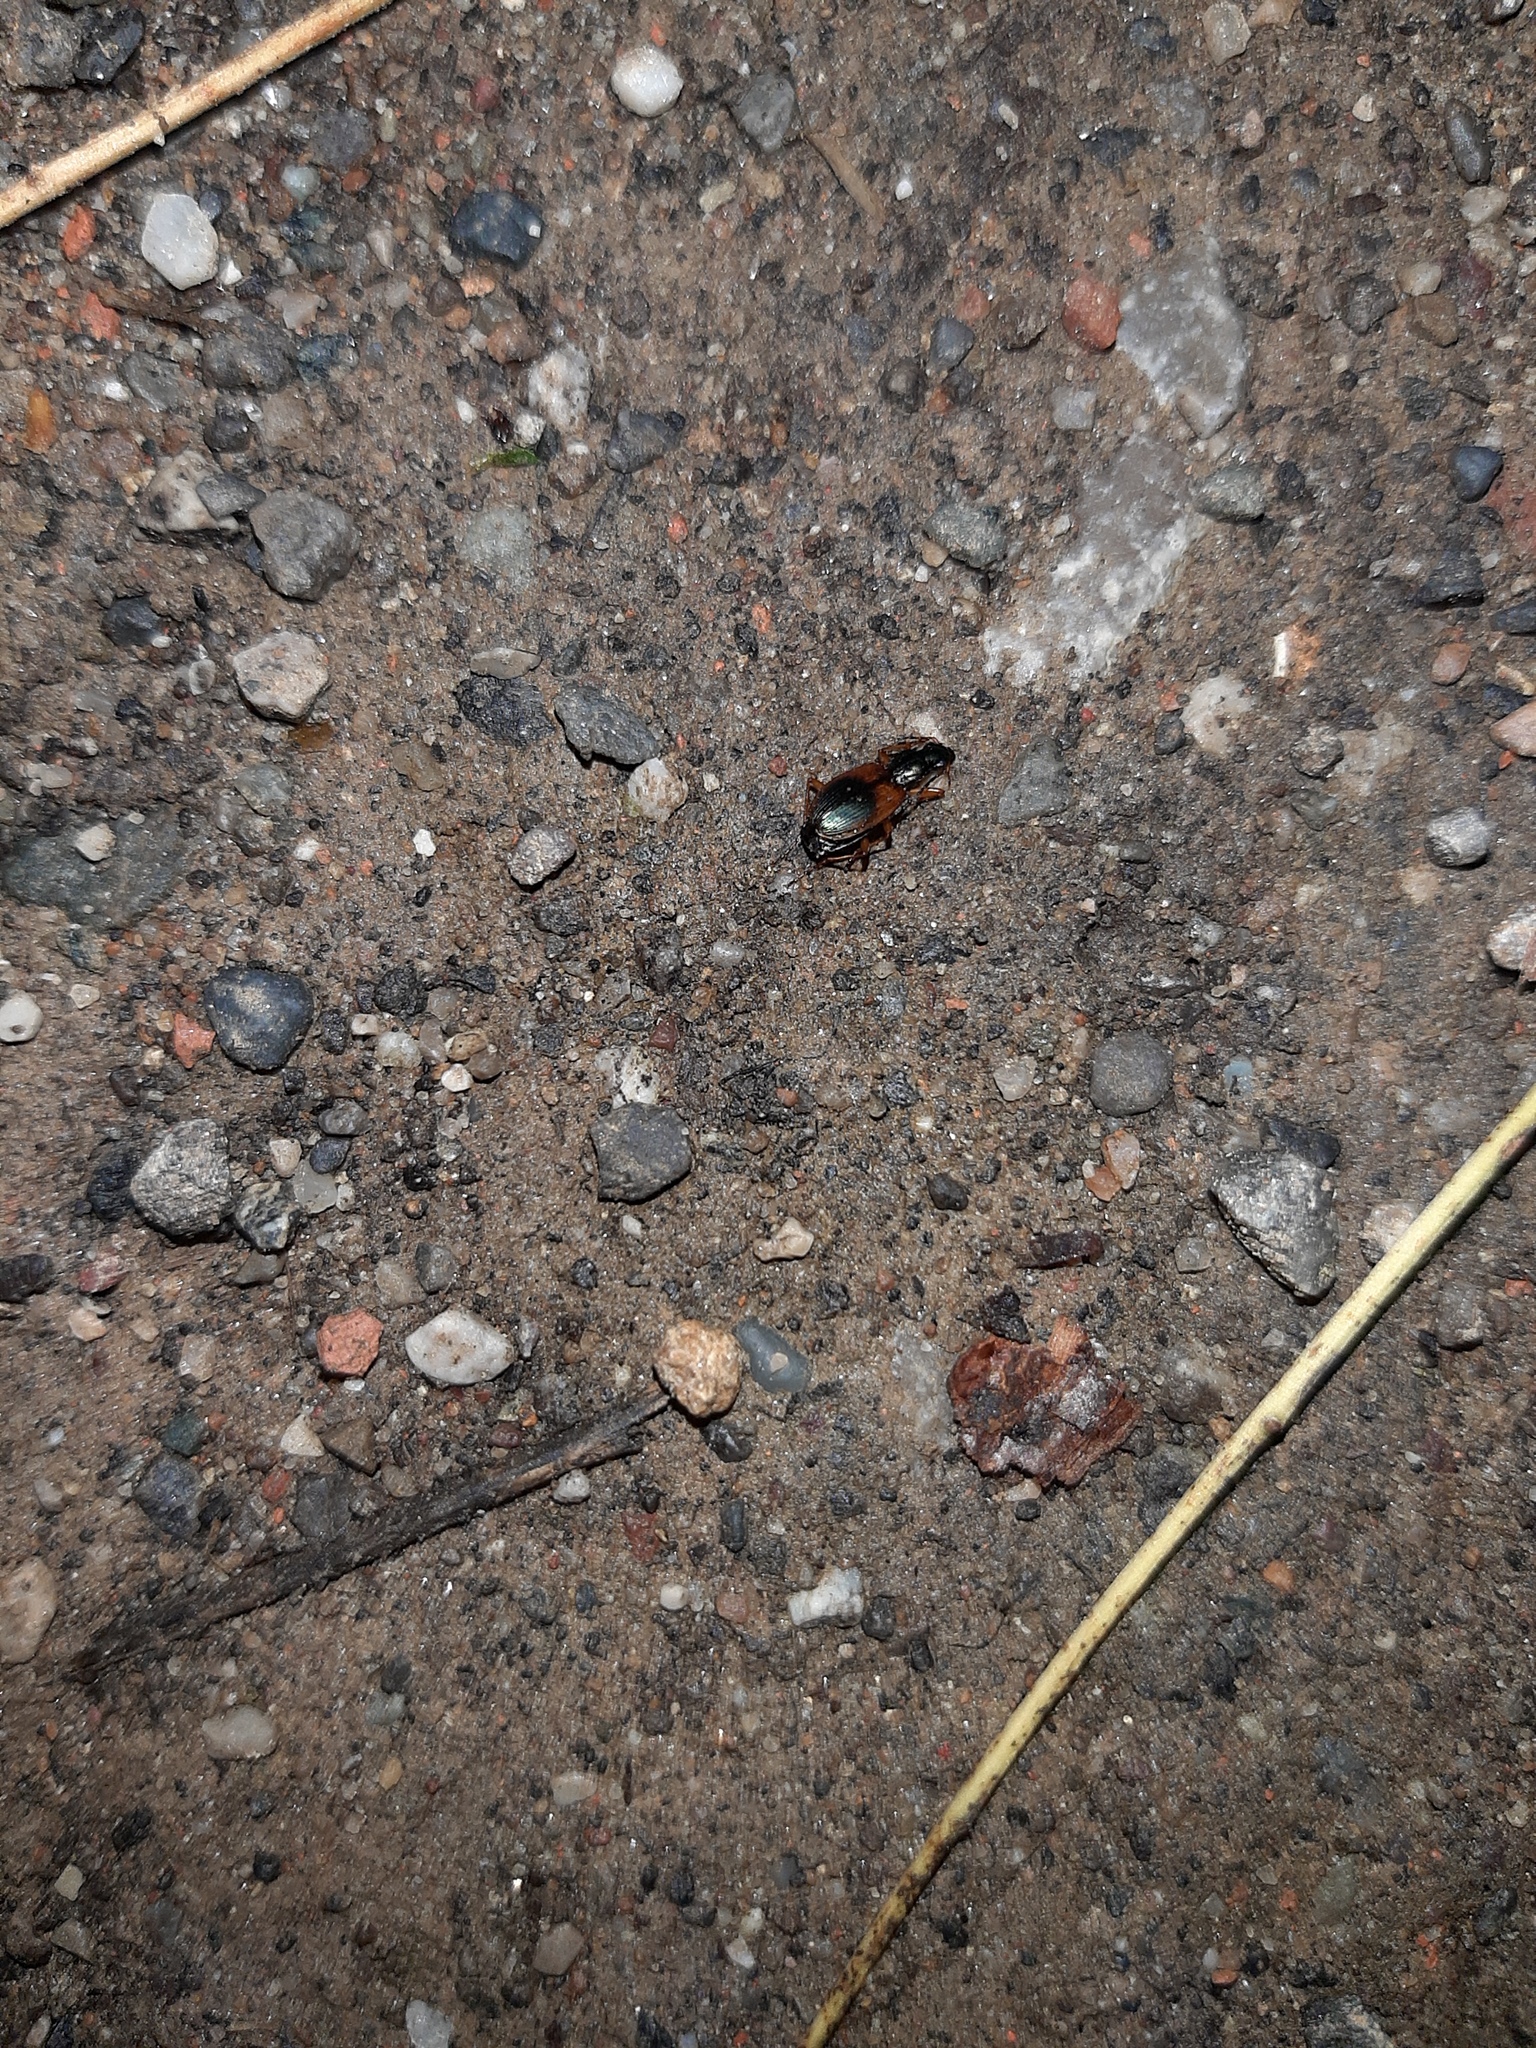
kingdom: Animalia
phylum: Arthropoda
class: Insecta
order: Coleoptera
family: Carabidae
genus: Anchomenus
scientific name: Anchomenus dorsalis
